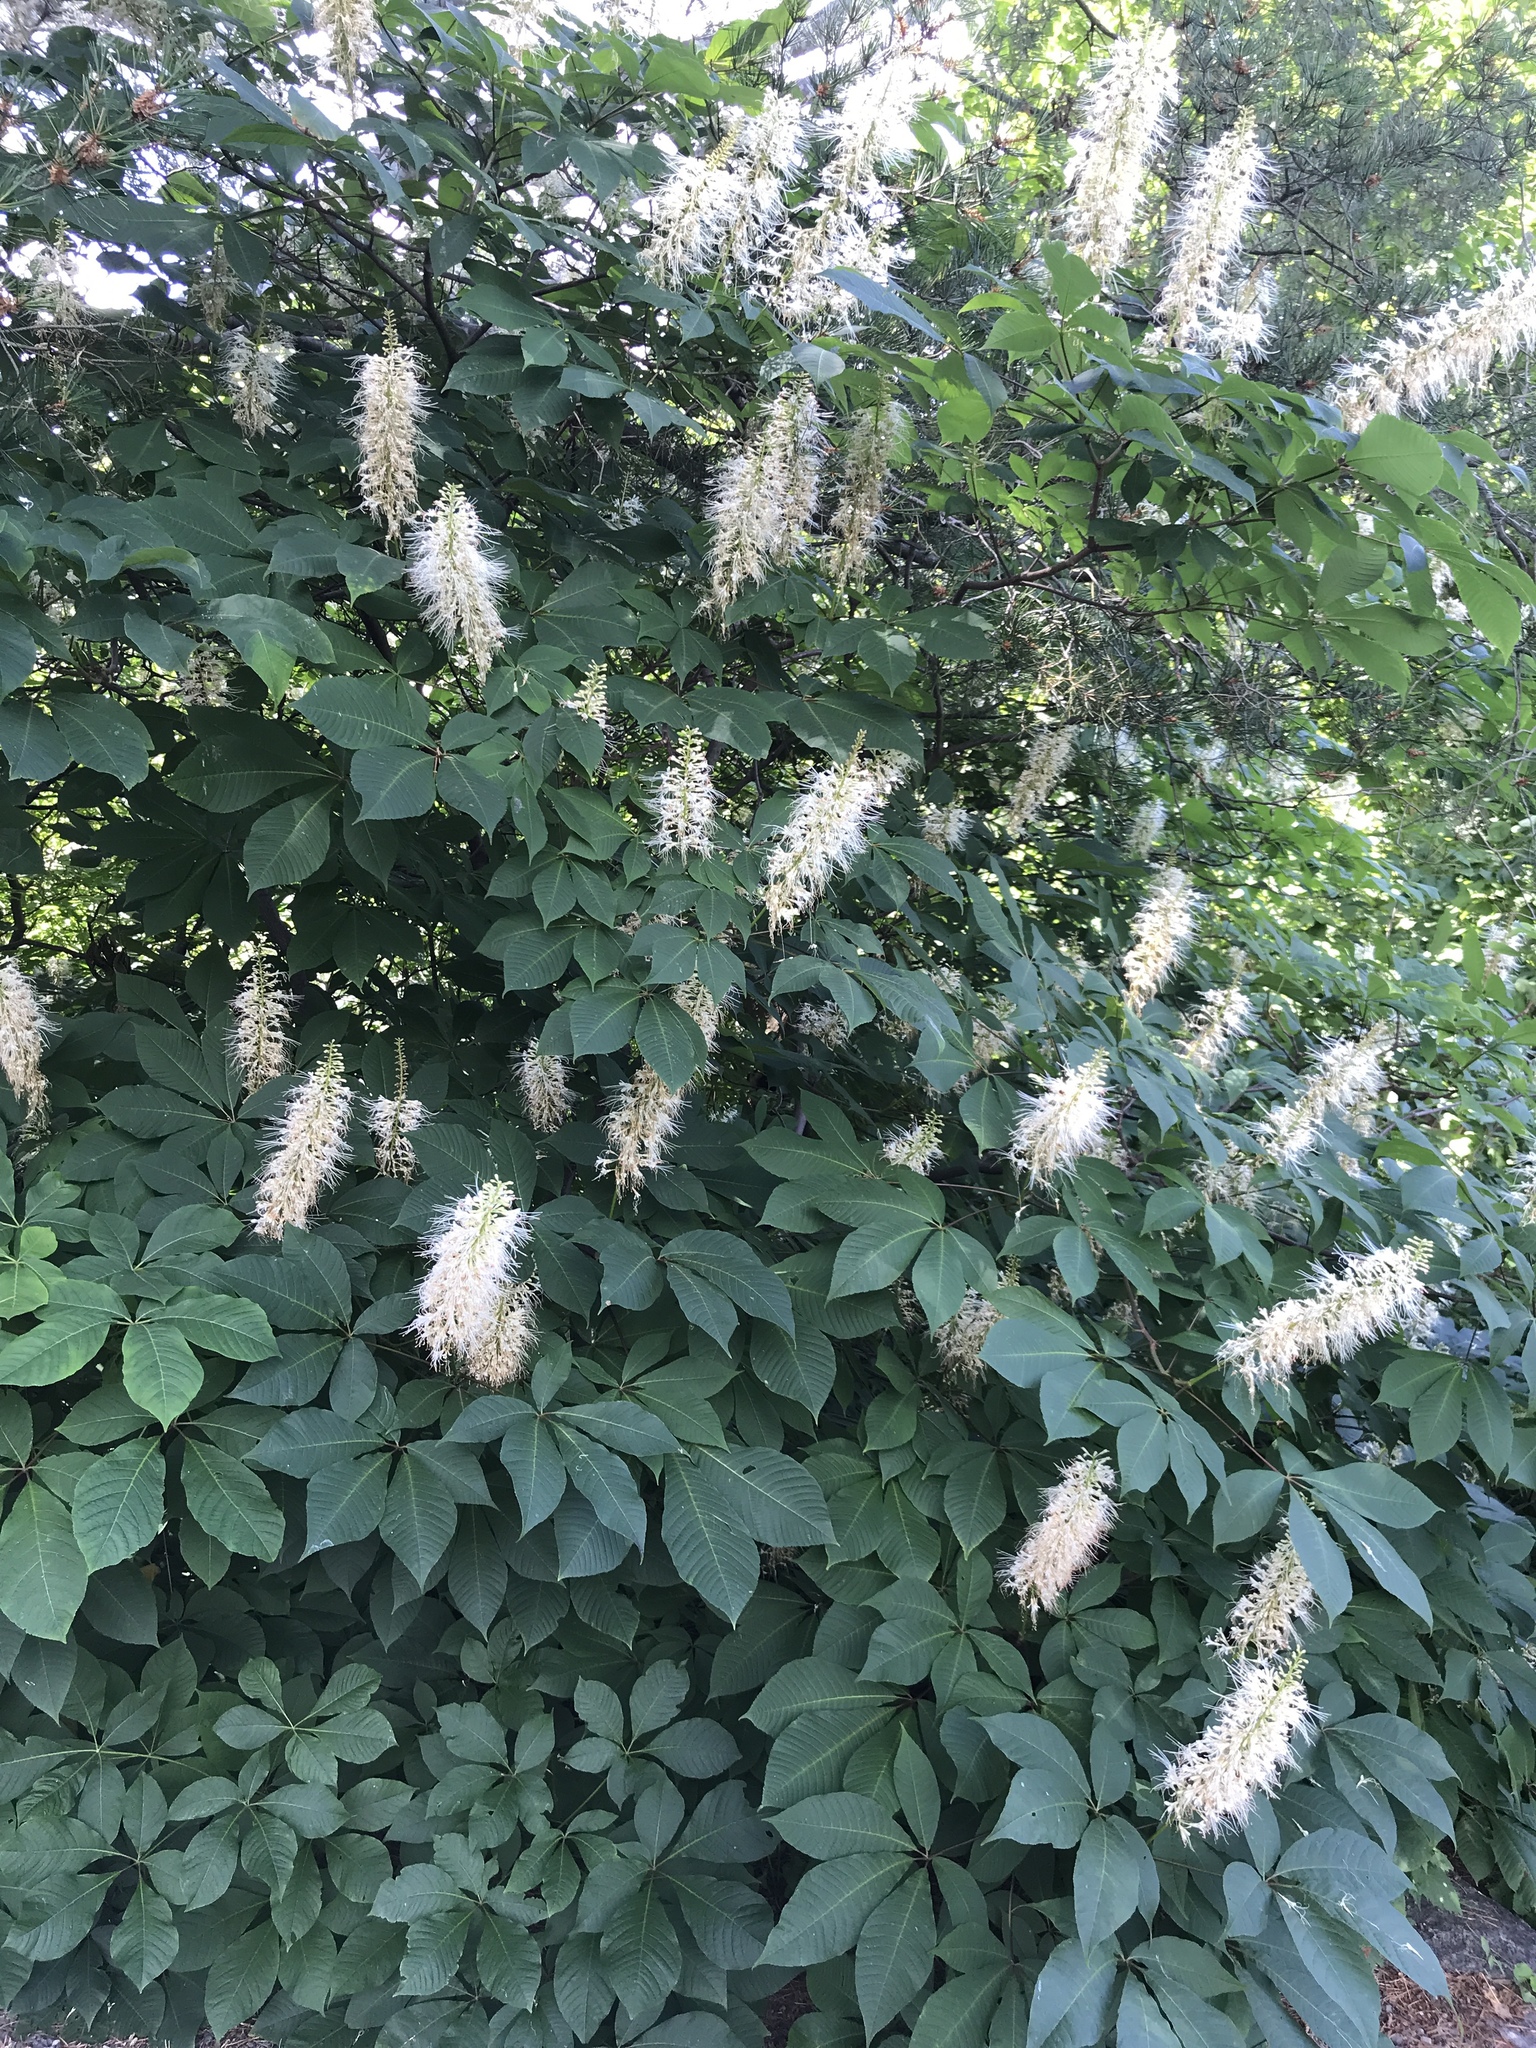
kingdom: Plantae
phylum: Tracheophyta
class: Magnoliopsida
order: Sapindales
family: Sapindaceae
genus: Aesculus
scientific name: Aesculus parviflora
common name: Bottlebrush buckeye
